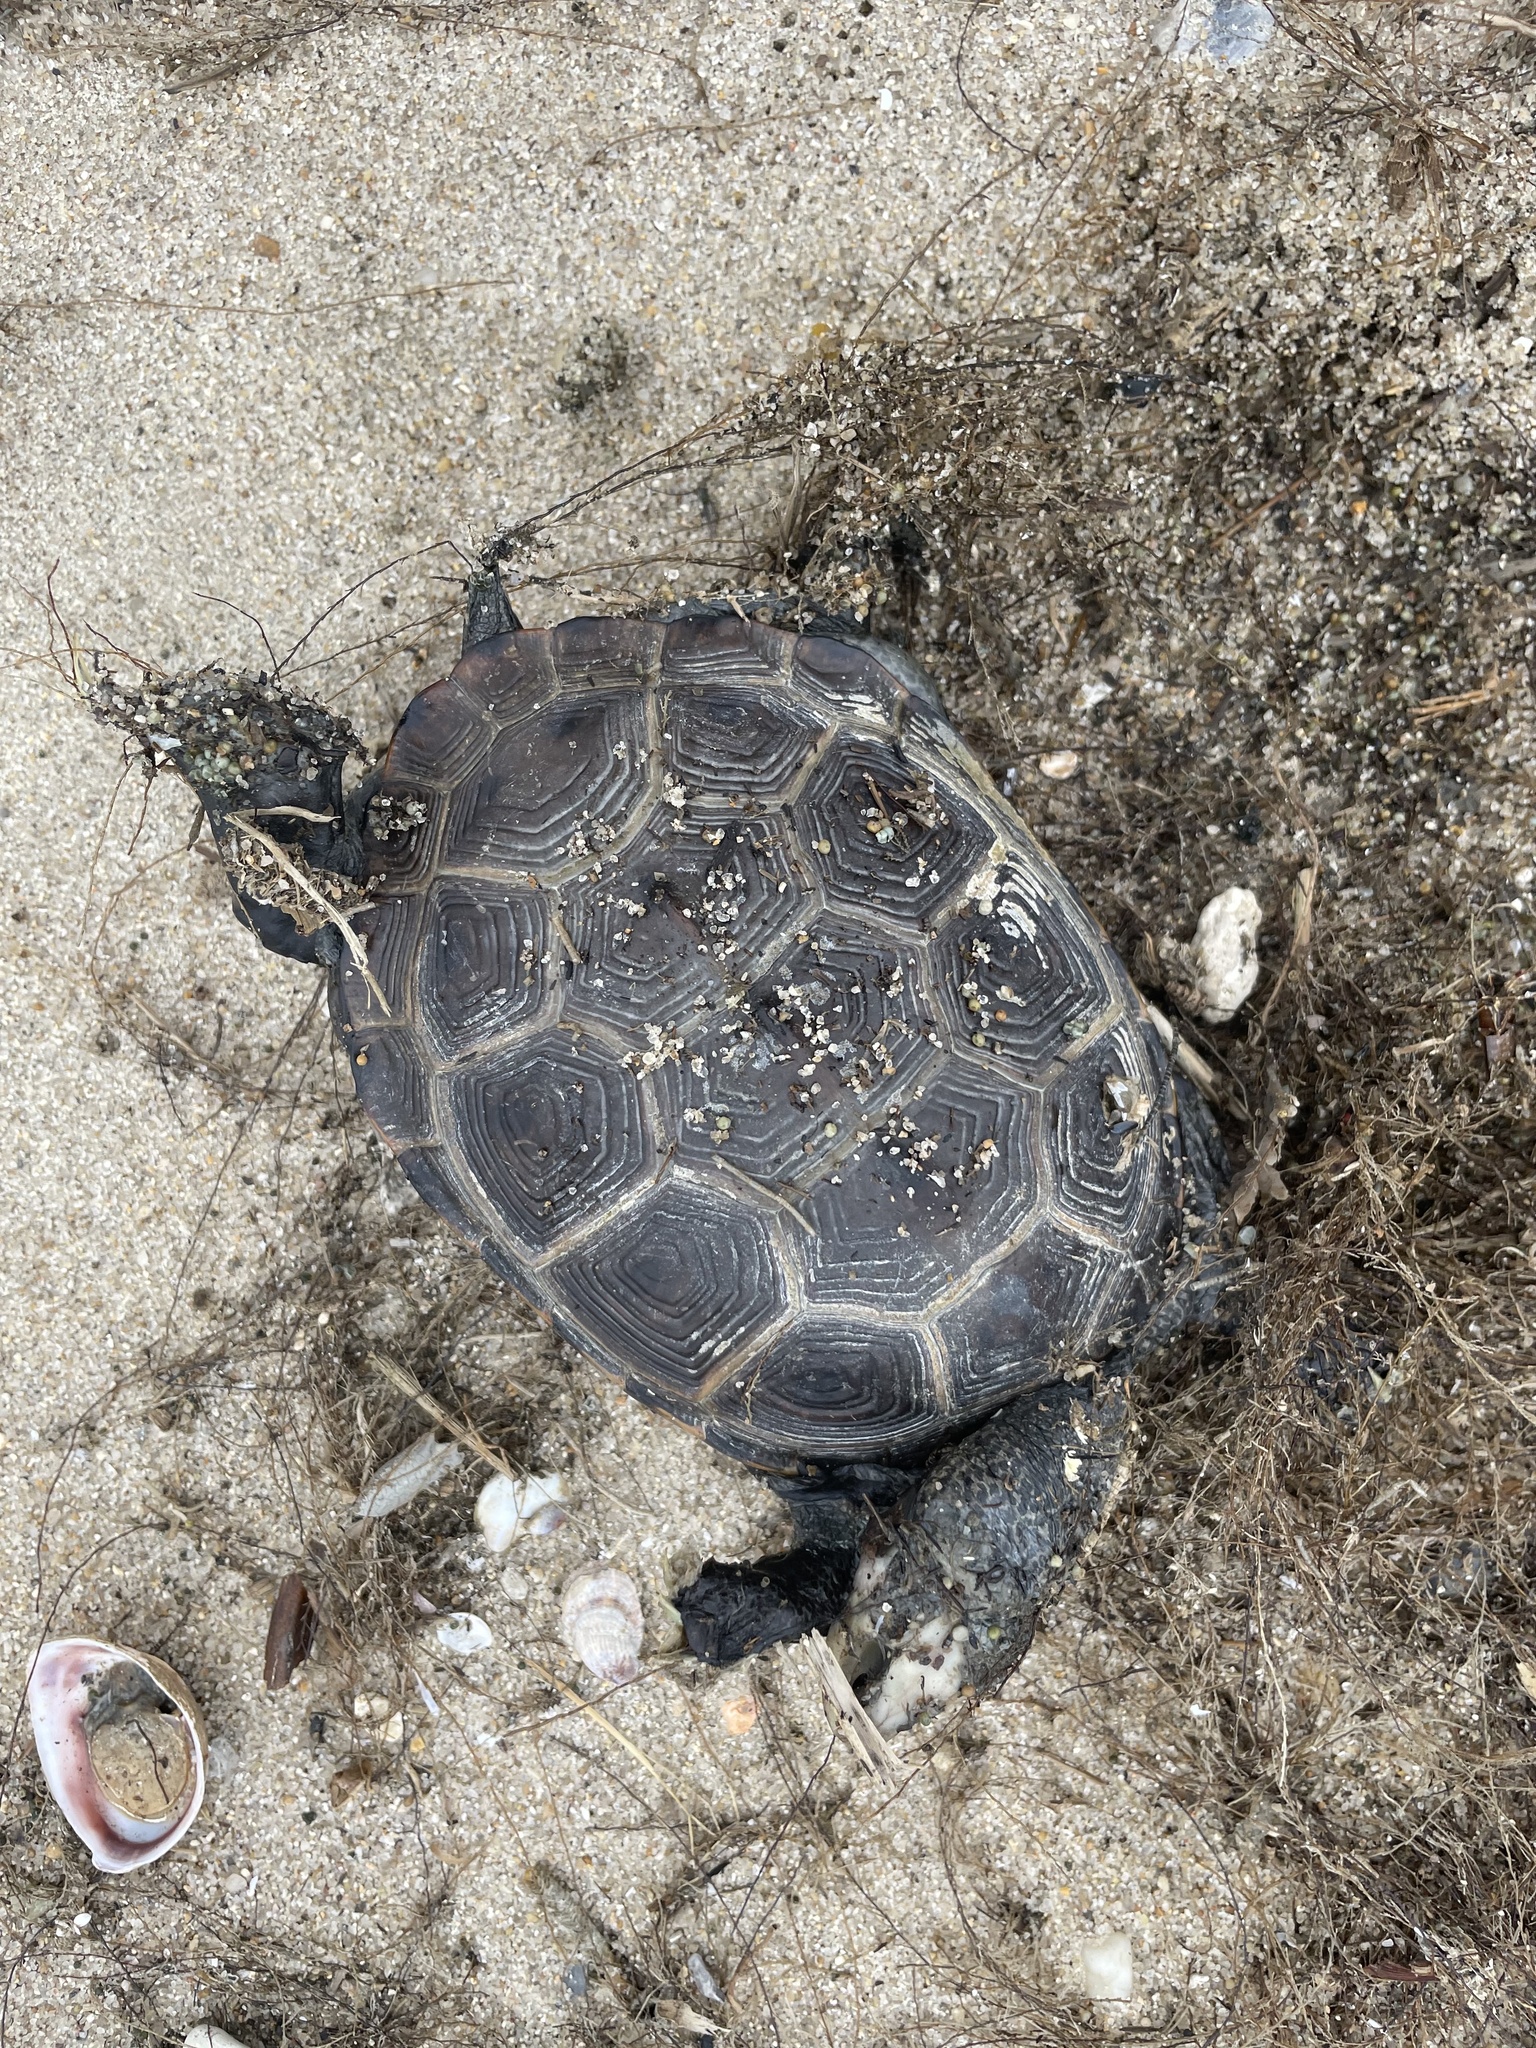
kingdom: Animalia
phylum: Chordata
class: Testudines
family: Emydidae
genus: Malaclemys
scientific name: Malaclemys terrapin
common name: Diamondback terrapin
